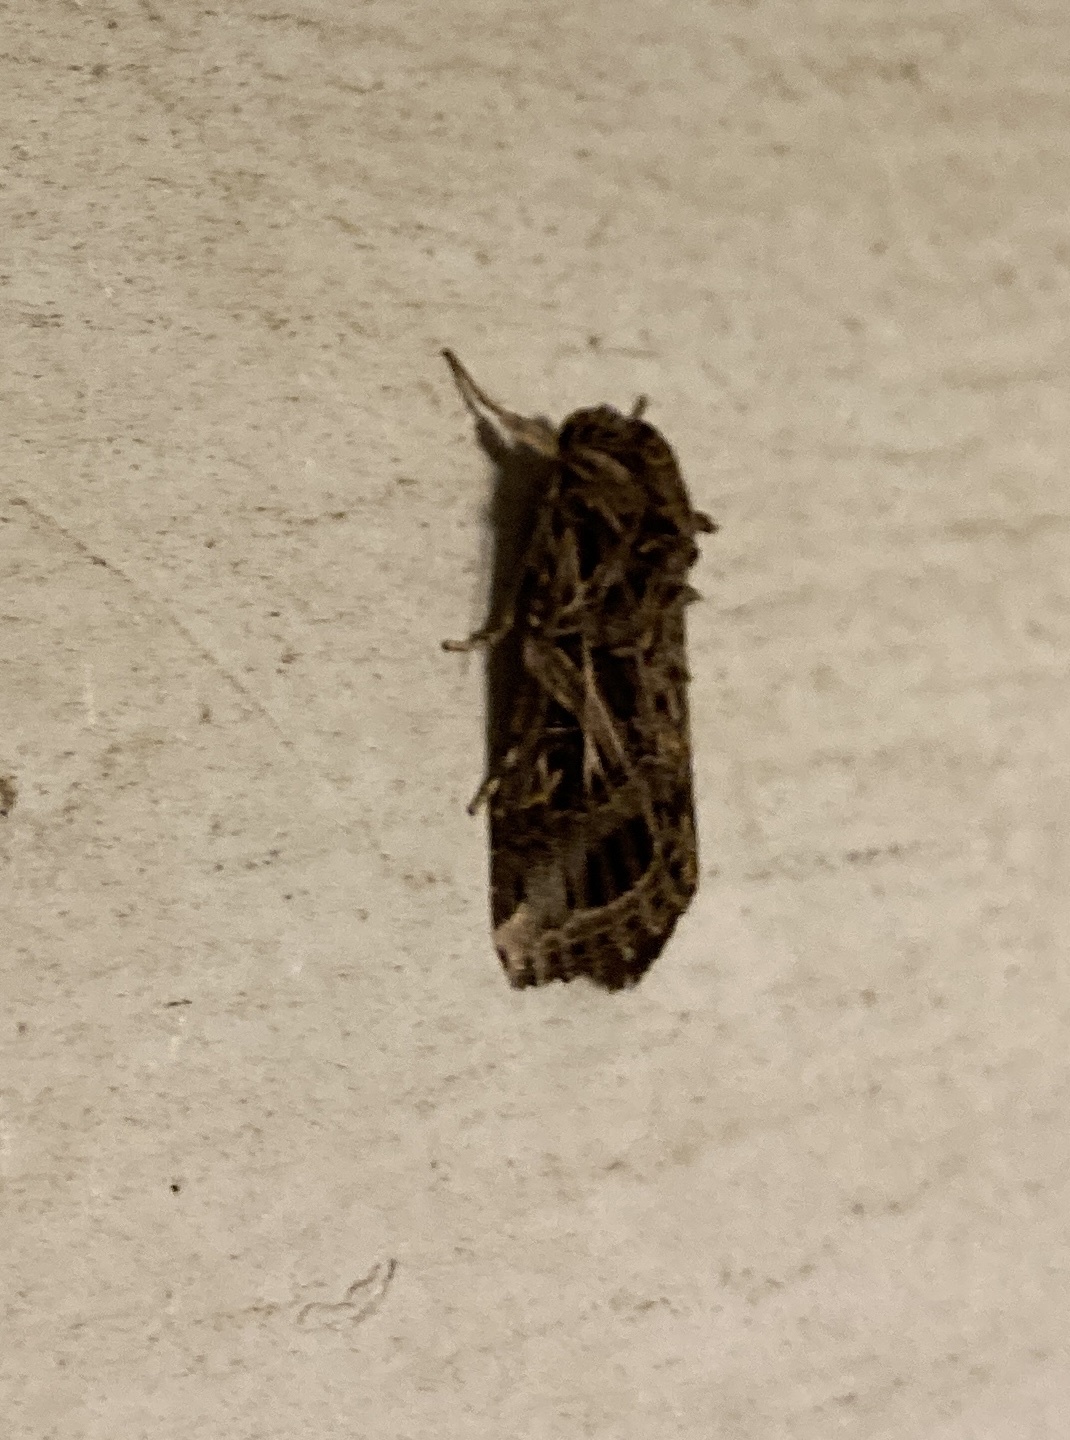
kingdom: Animalia
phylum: Arthropoda
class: Insecta
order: Lepidoptera
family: Noctuidae
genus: Spodoptera
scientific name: Spodoptera litura
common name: Asian cotton leafworm
